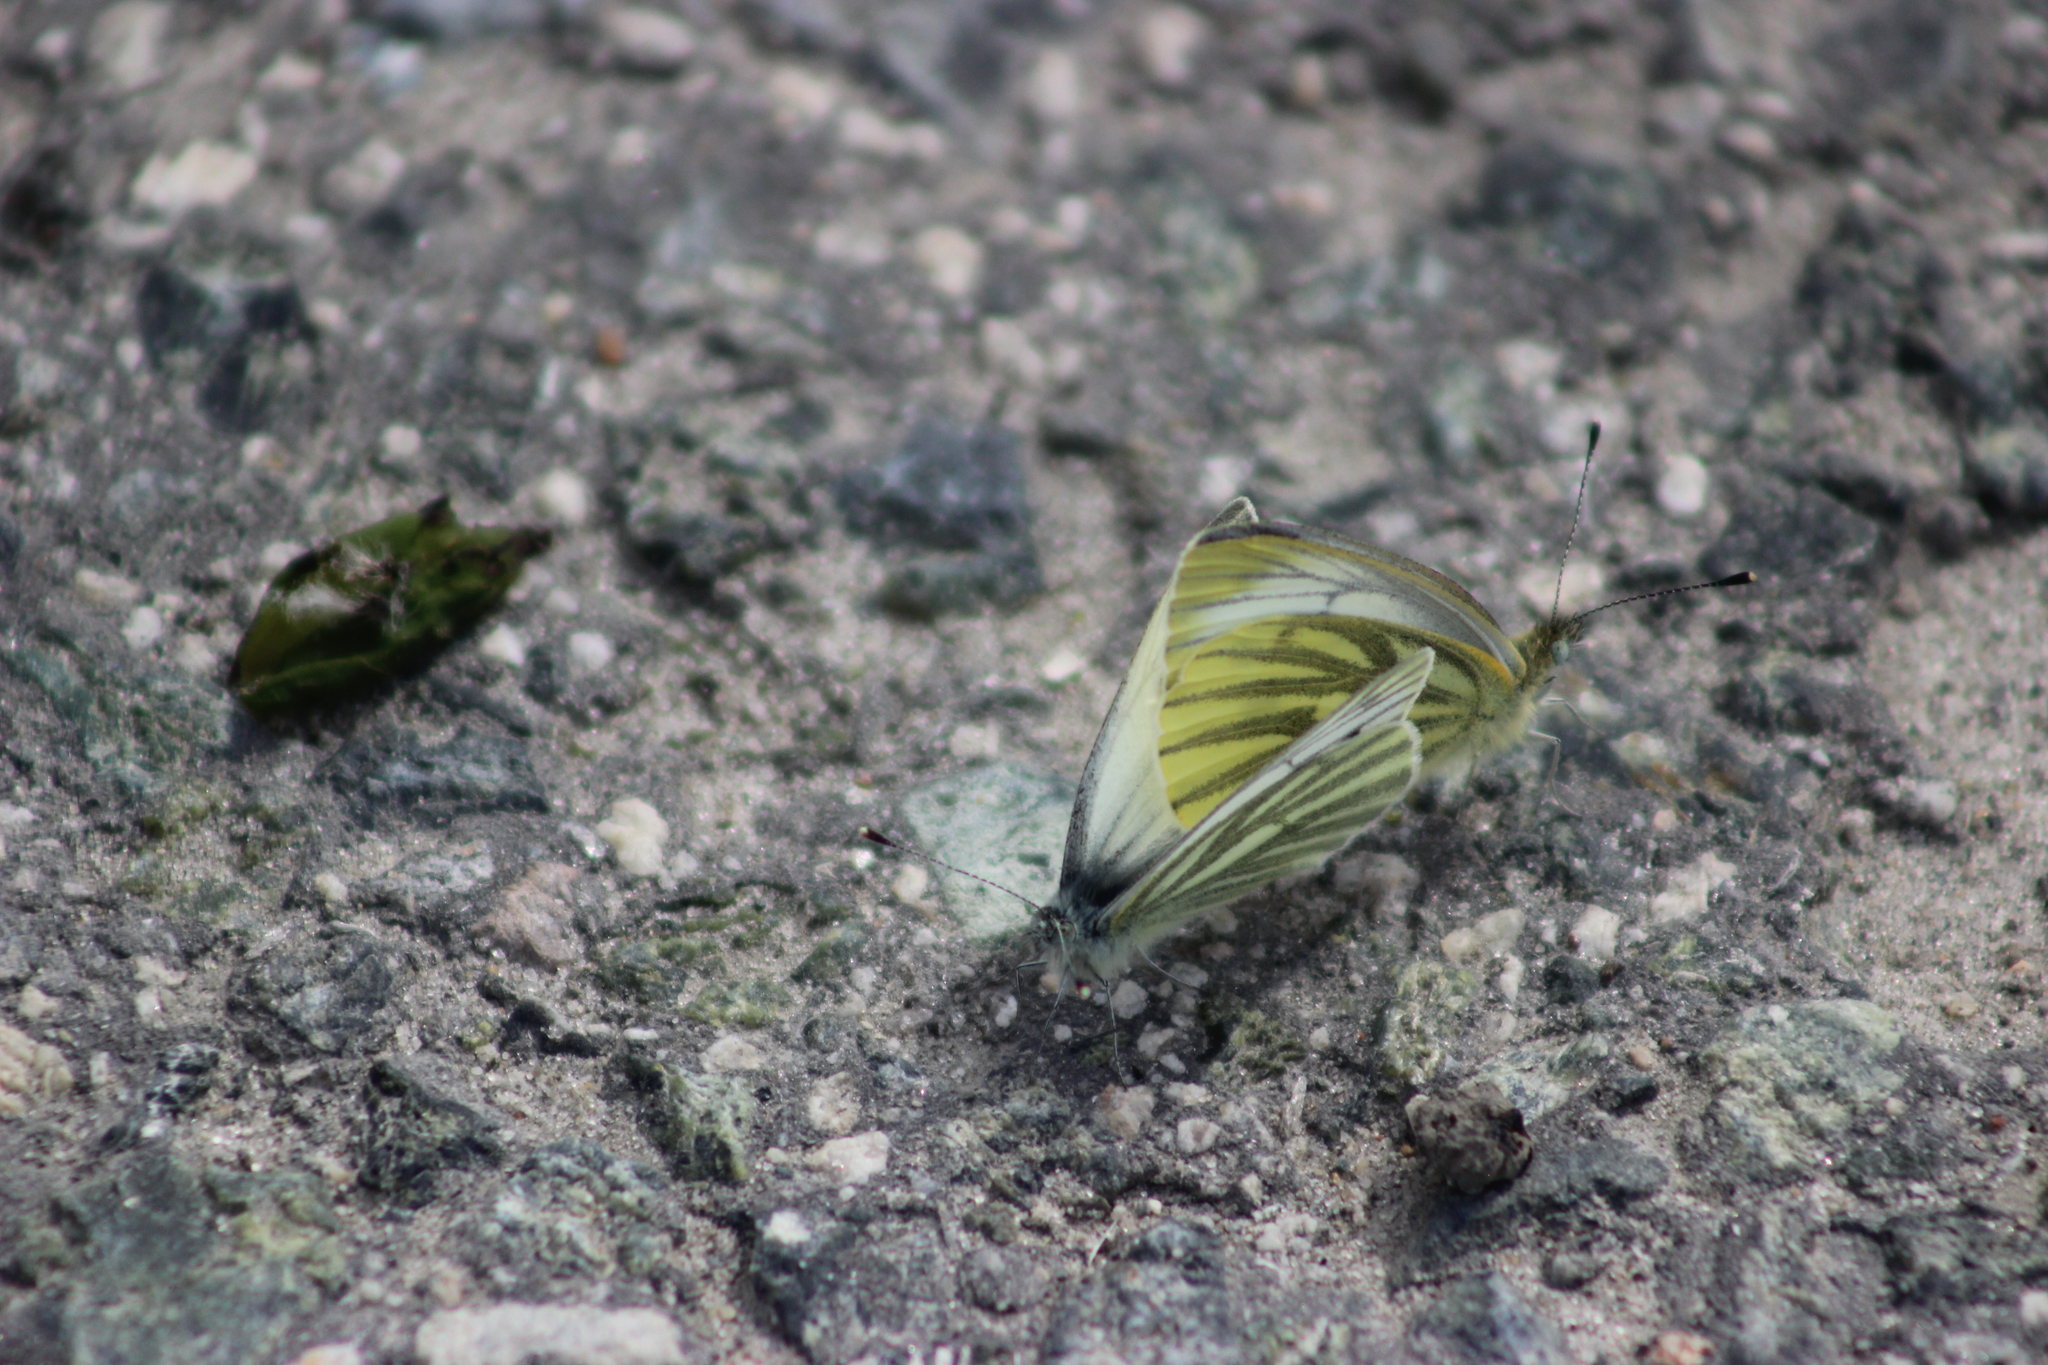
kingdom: Animalia
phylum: Arthropoda
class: Insecta
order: Lepidoptera
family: Pieridae
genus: Pieris
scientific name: Pieris napi
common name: Green-veined white
